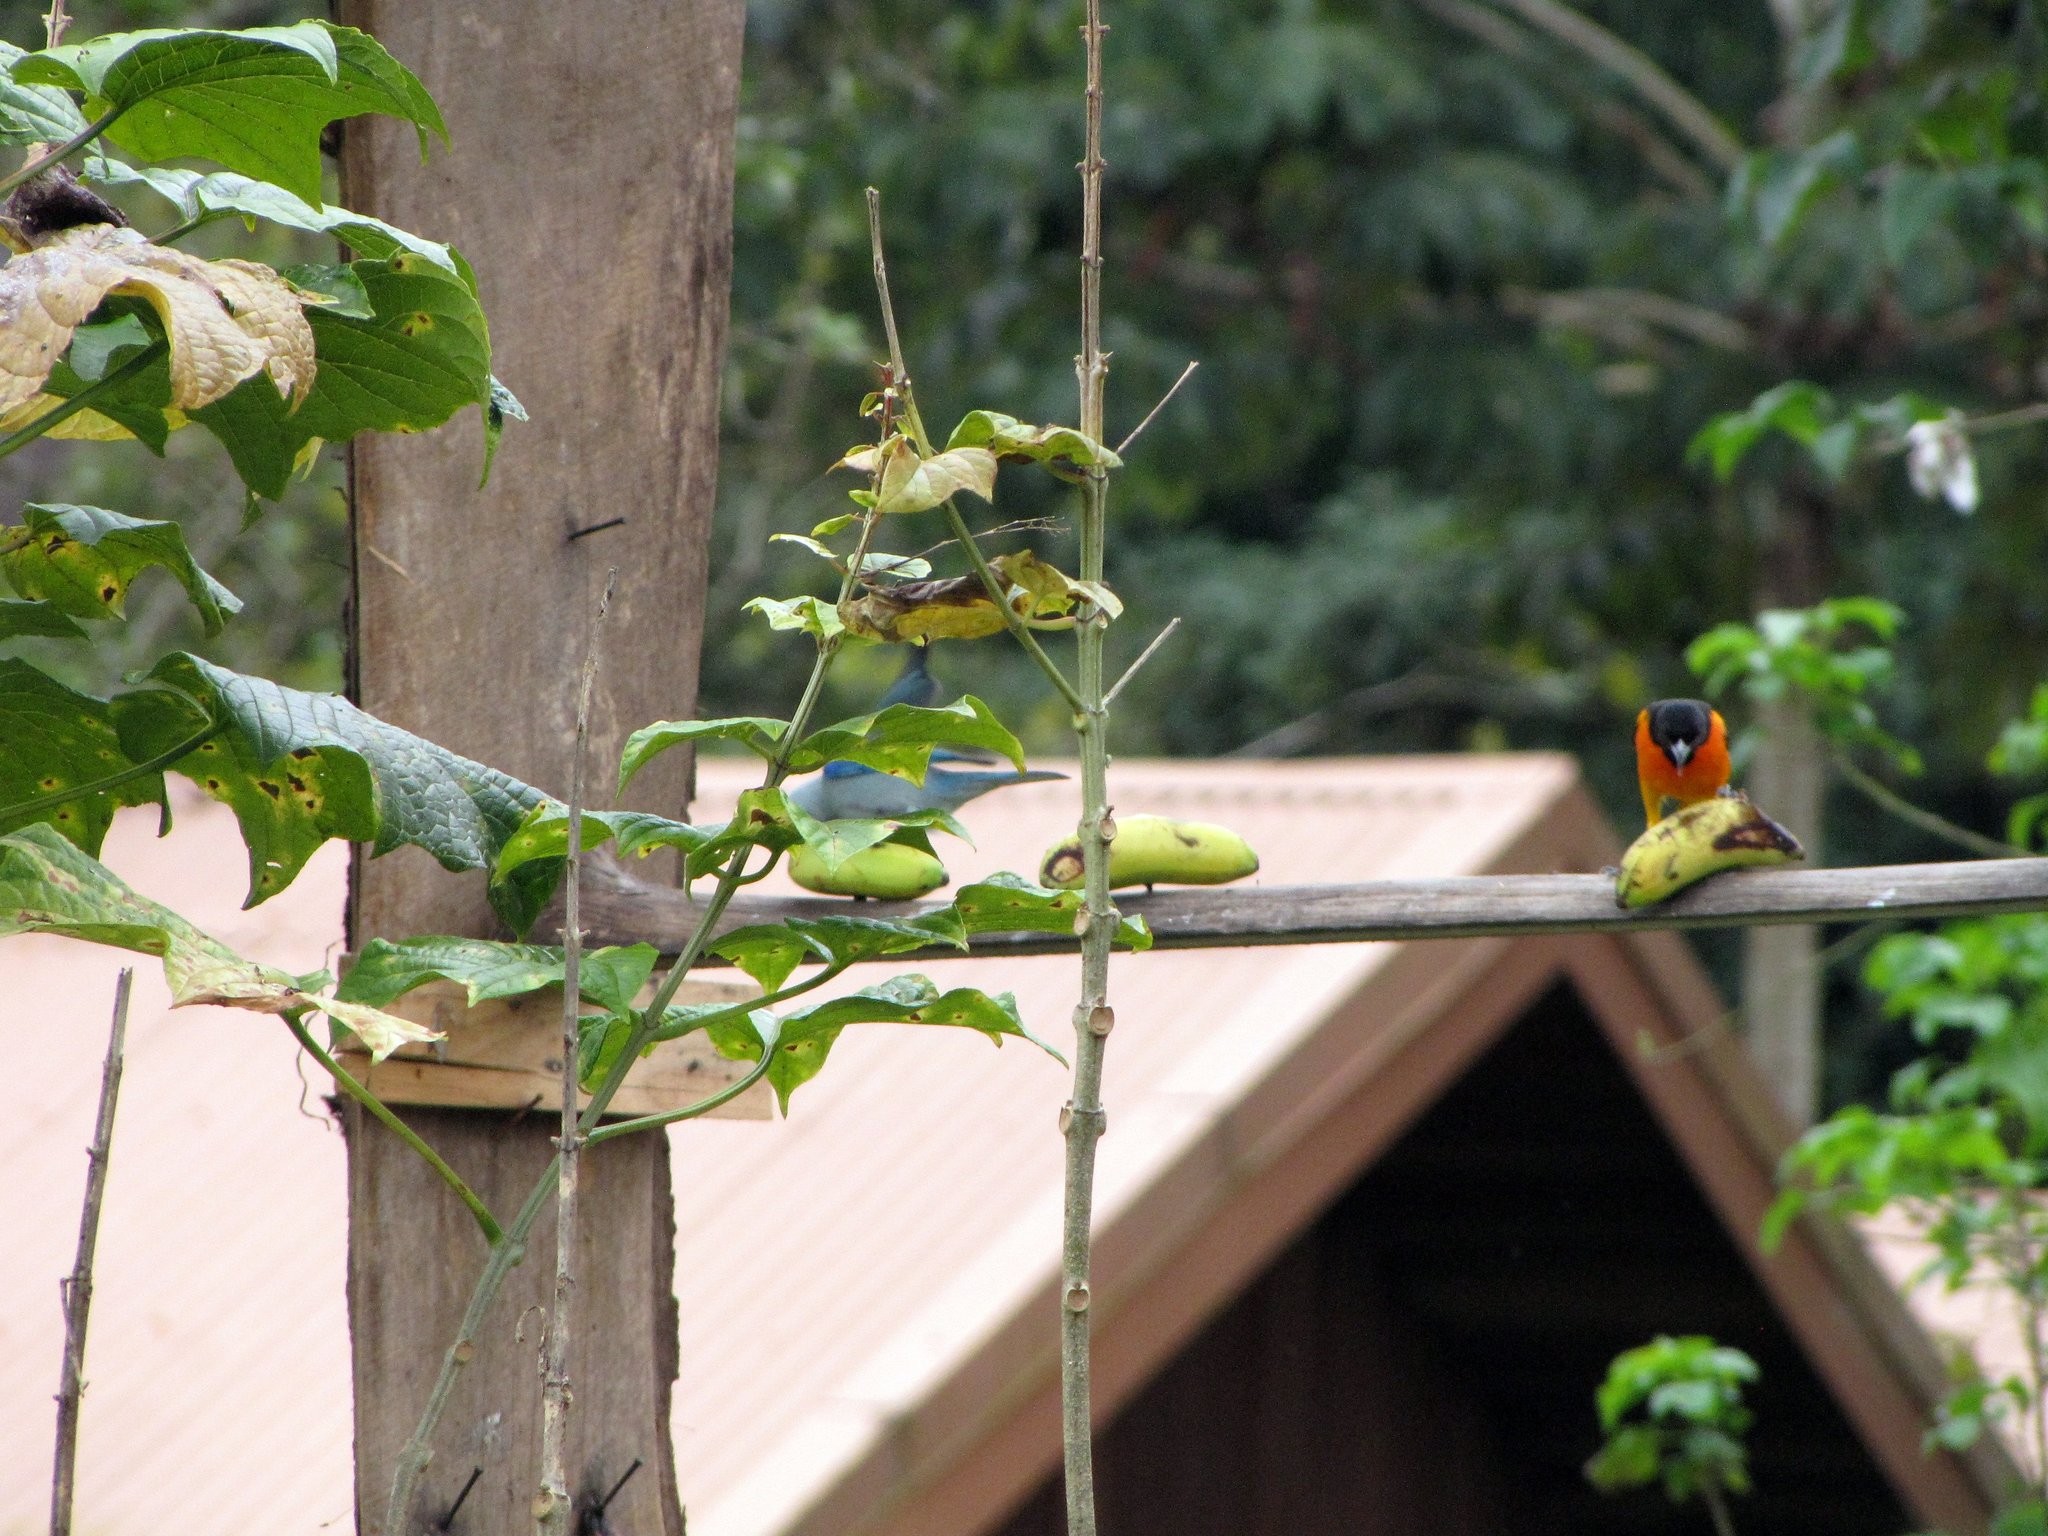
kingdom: Animalia
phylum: Chordata
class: Aves
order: Passeriformes
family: Icteridae
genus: Icterus
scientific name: Icterus galbula
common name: Baltimore oriole
